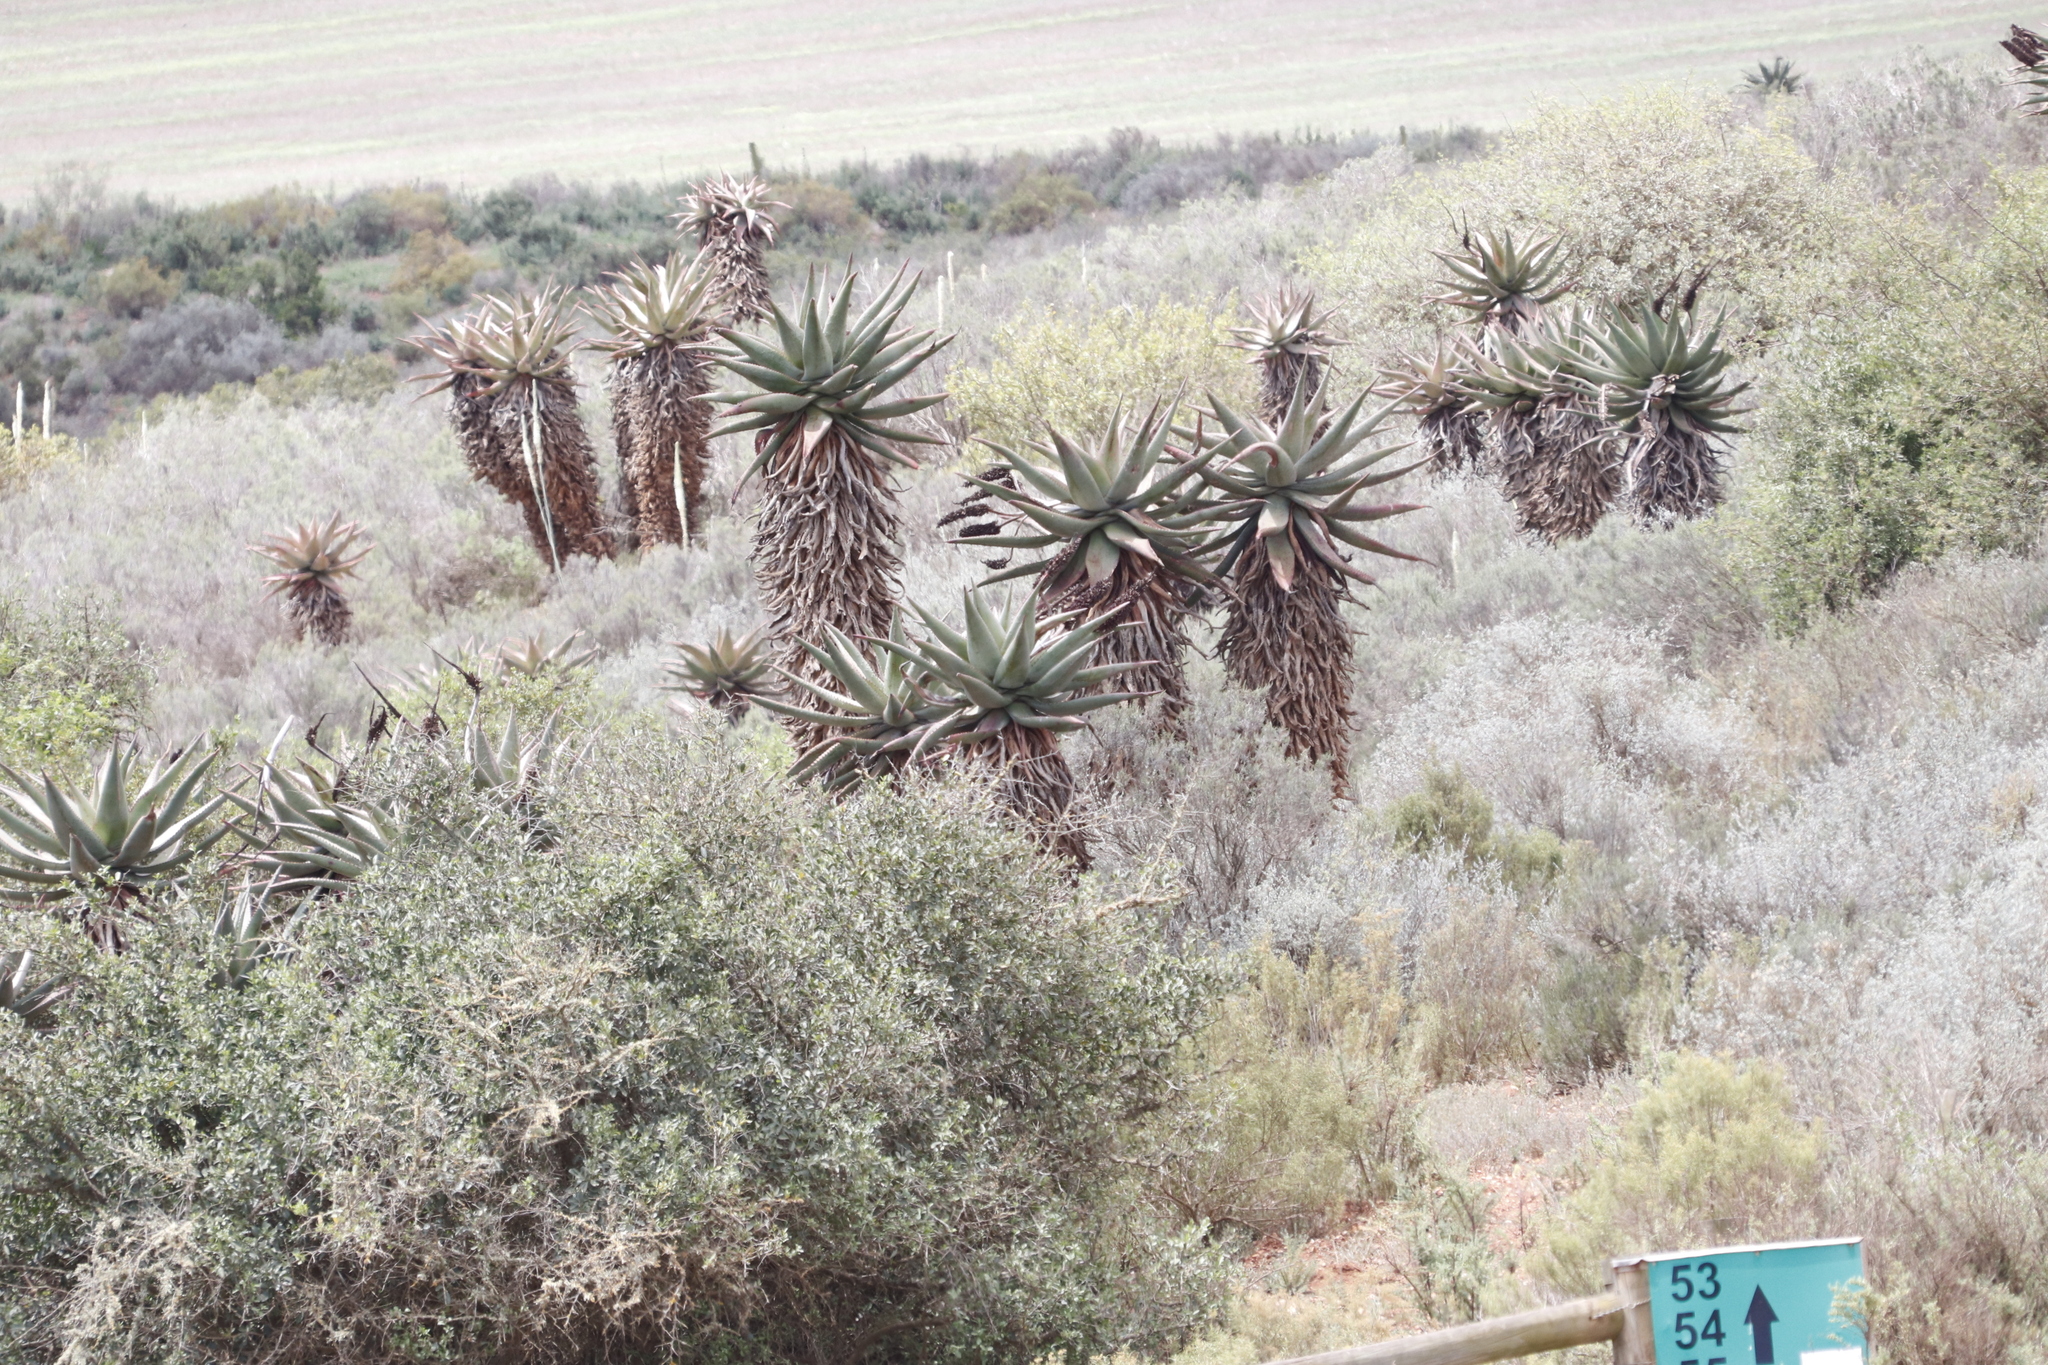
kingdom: Plantae
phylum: Tracheophyta
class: Liliopsida
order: Asparagales
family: Asphodelaceae
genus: Aloe
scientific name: Aloe ferox
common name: Bitter aloe
